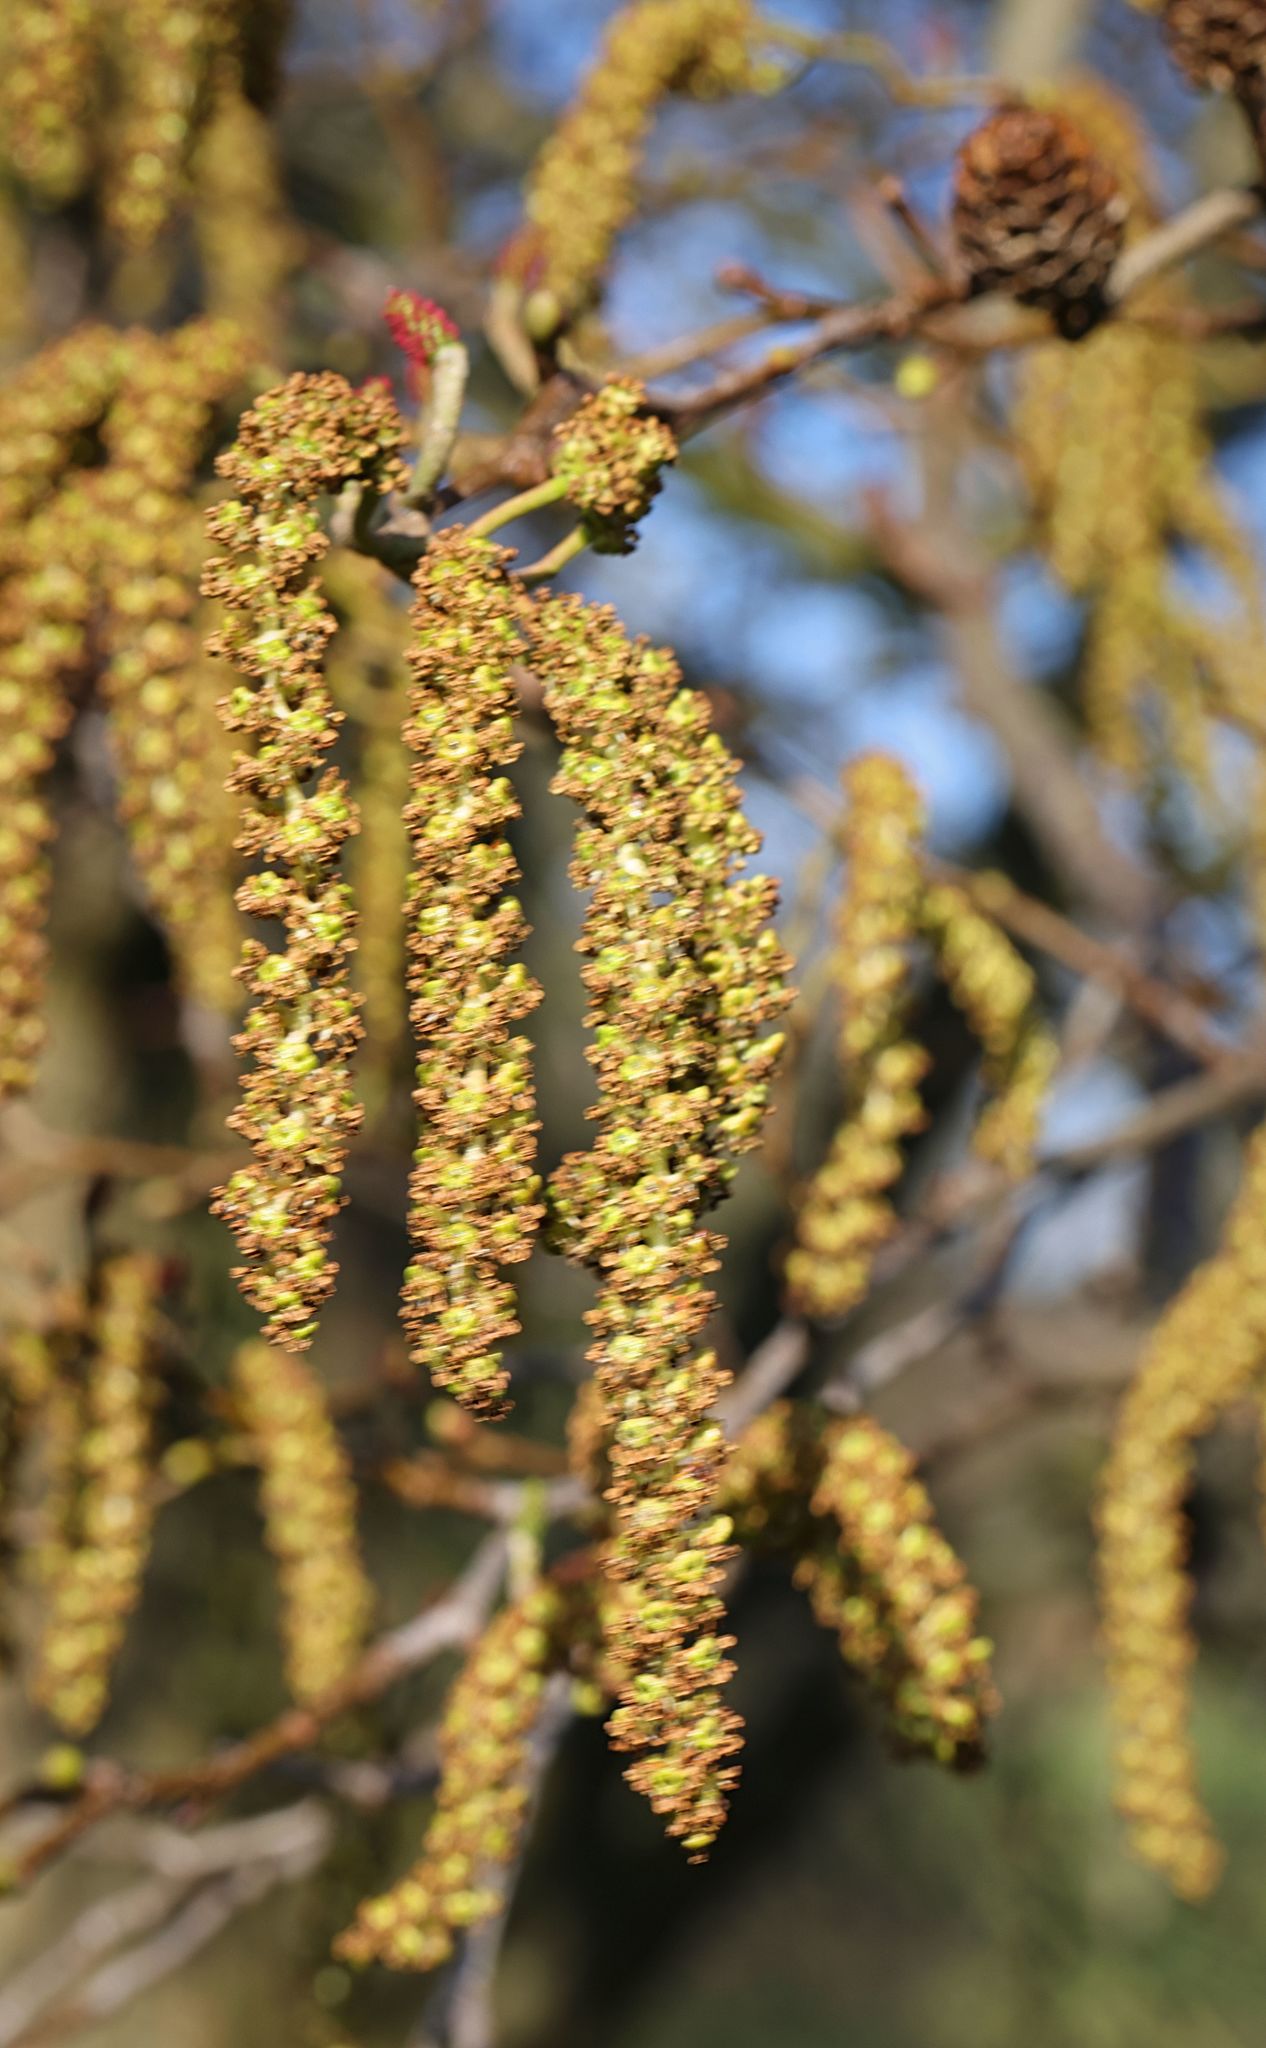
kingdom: Plantae
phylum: Tracheophyta
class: Magnoliopsida
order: Fagales
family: Betulaceae
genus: Alnus
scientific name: Alnus glutinosa
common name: Black alder
